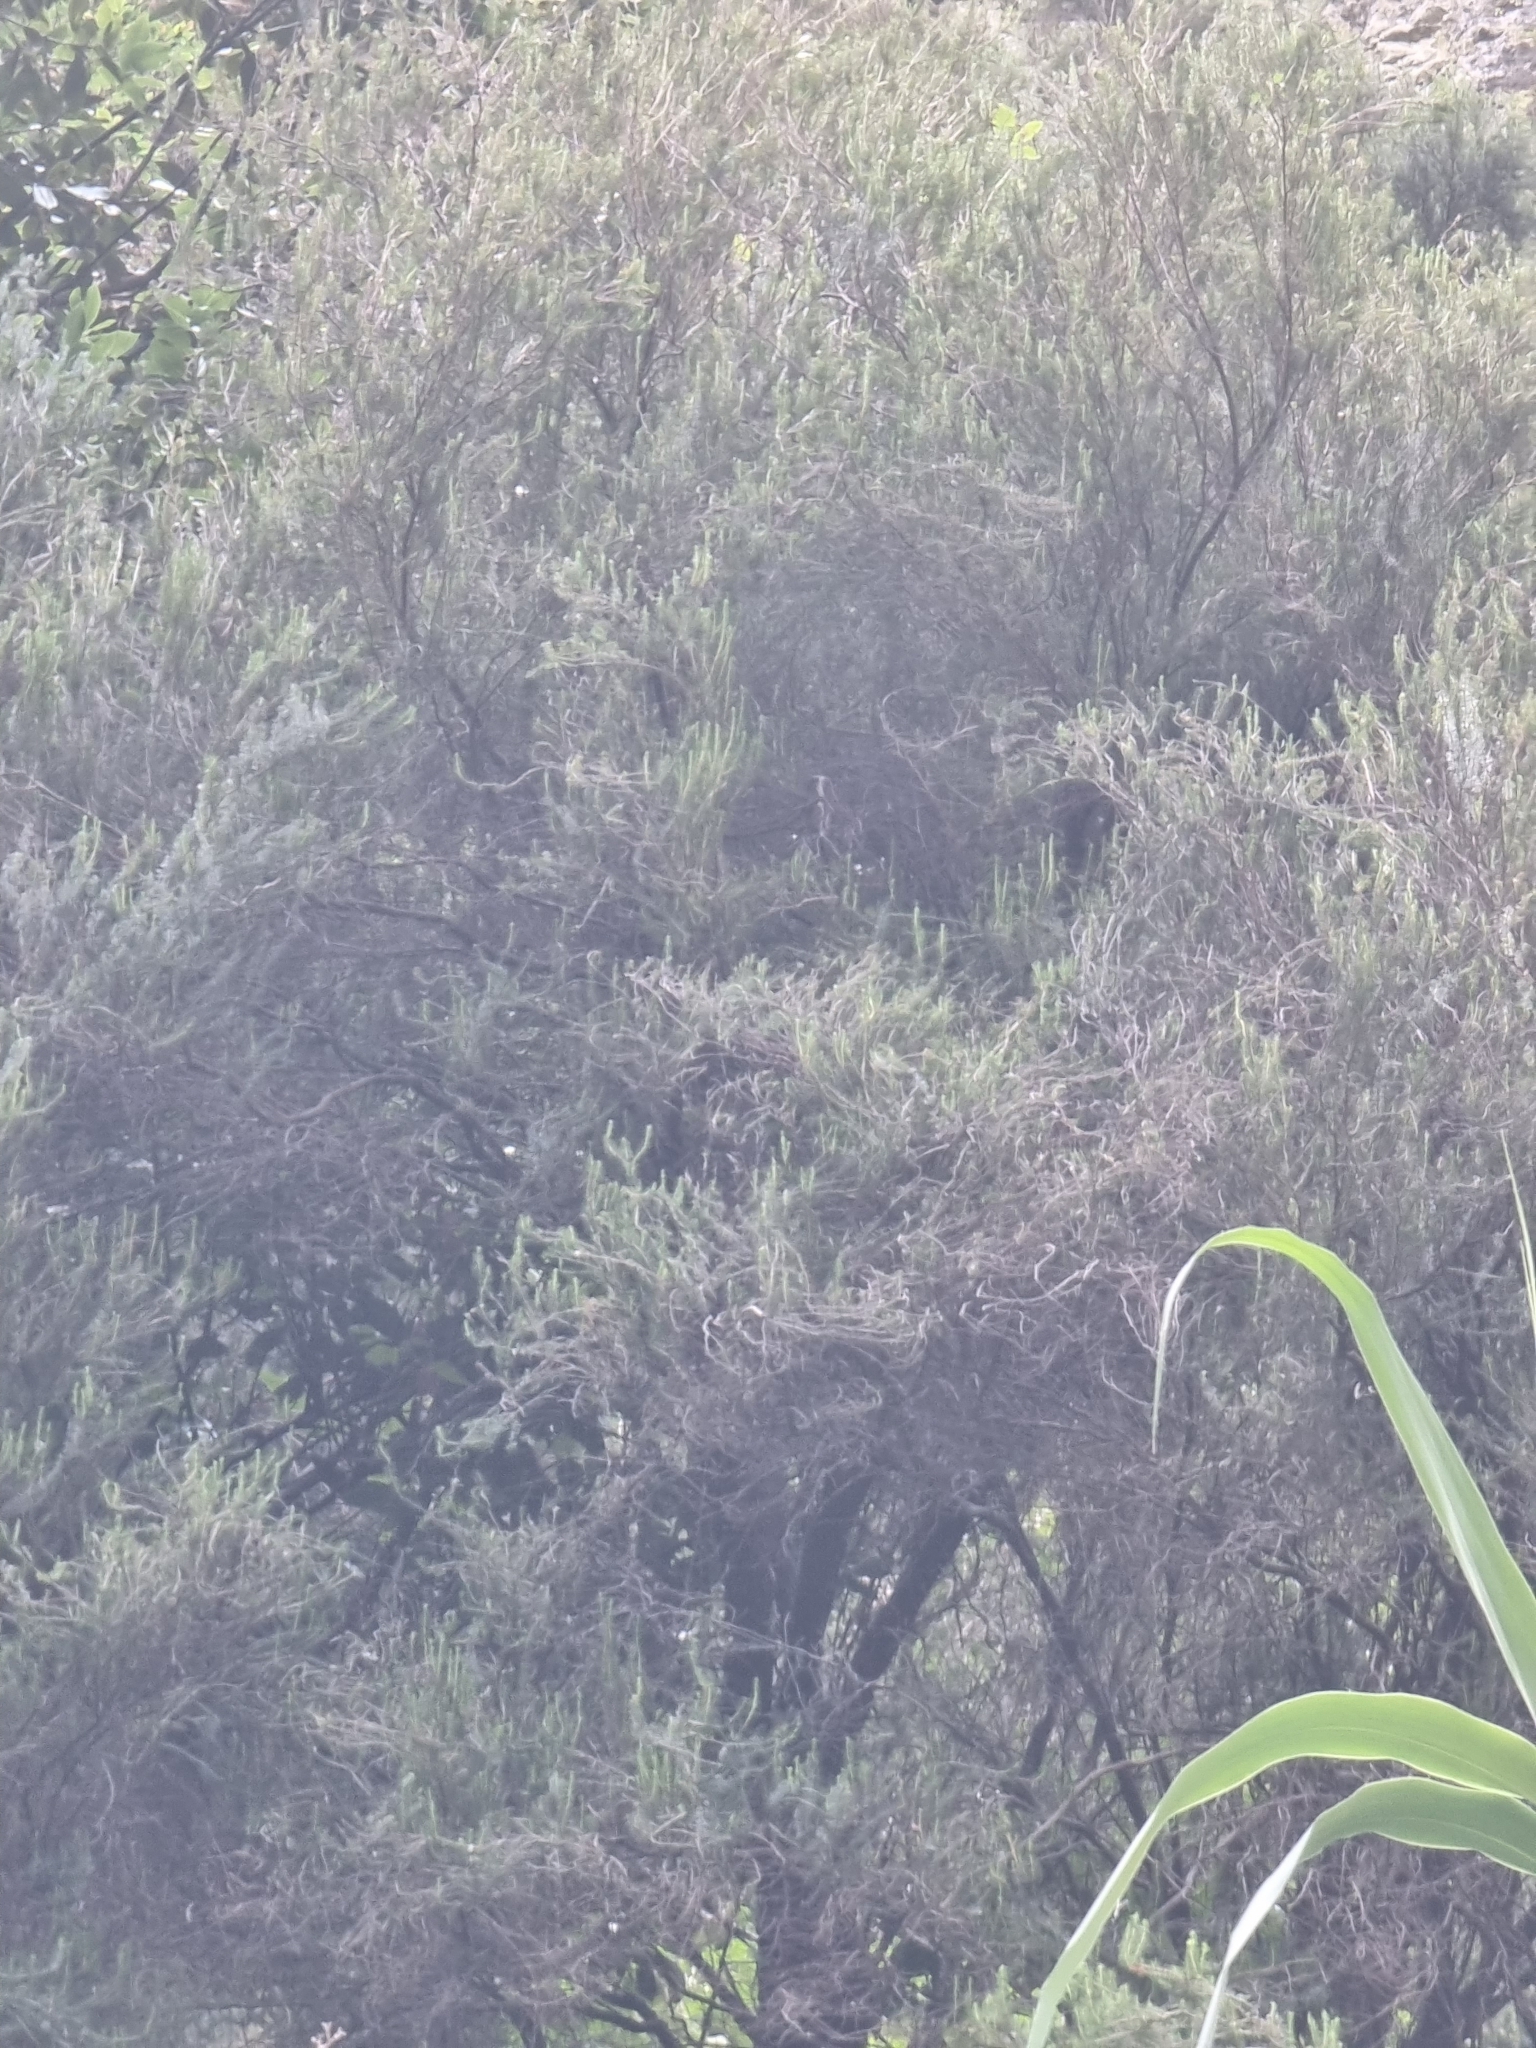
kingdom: Plantae
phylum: Tracheophyta
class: Magnoliopsida
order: Ericales
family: Ericaceae
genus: Erica
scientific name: Erica platycodon
